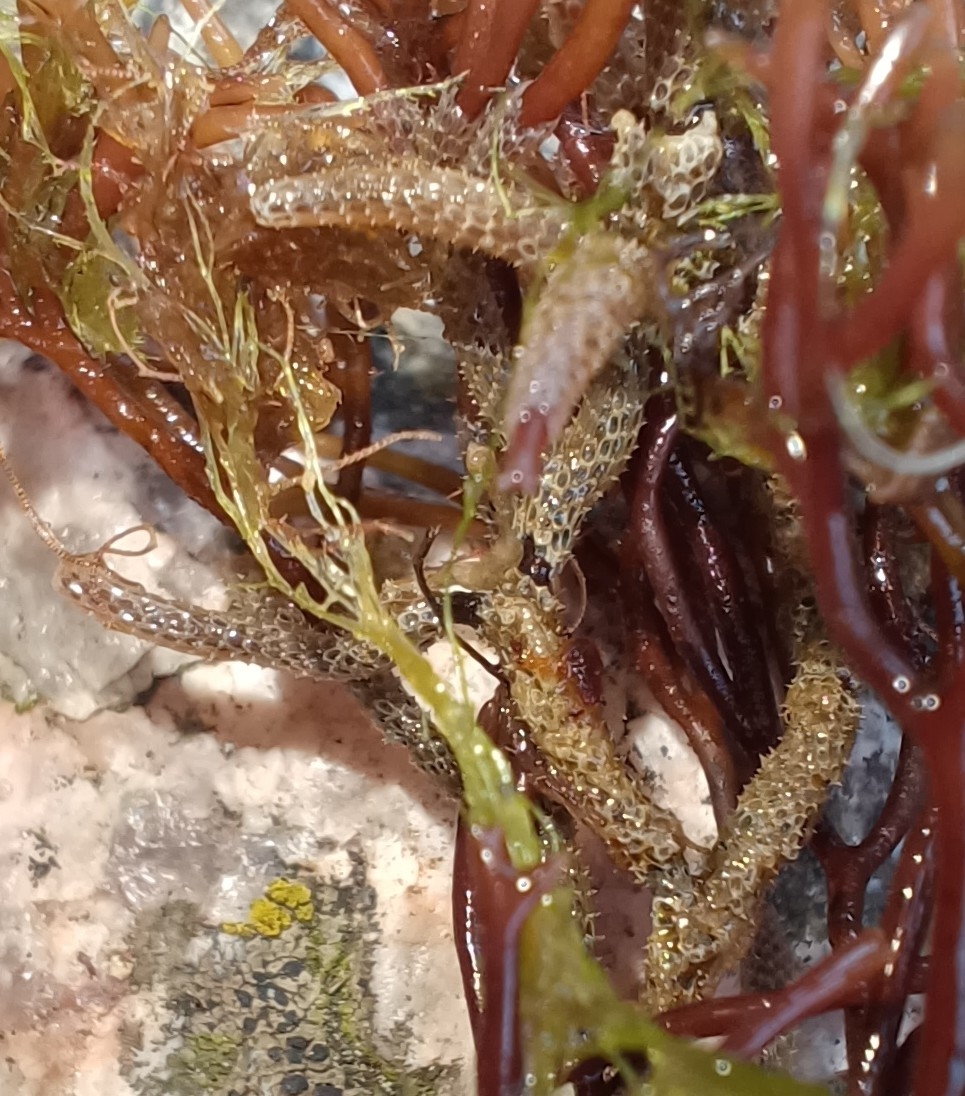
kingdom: Animalia
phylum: Bryozoa
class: Gymnolaemata
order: Cheilostomatida
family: Electridae
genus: Einhornia
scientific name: Einhornia crustulenta
